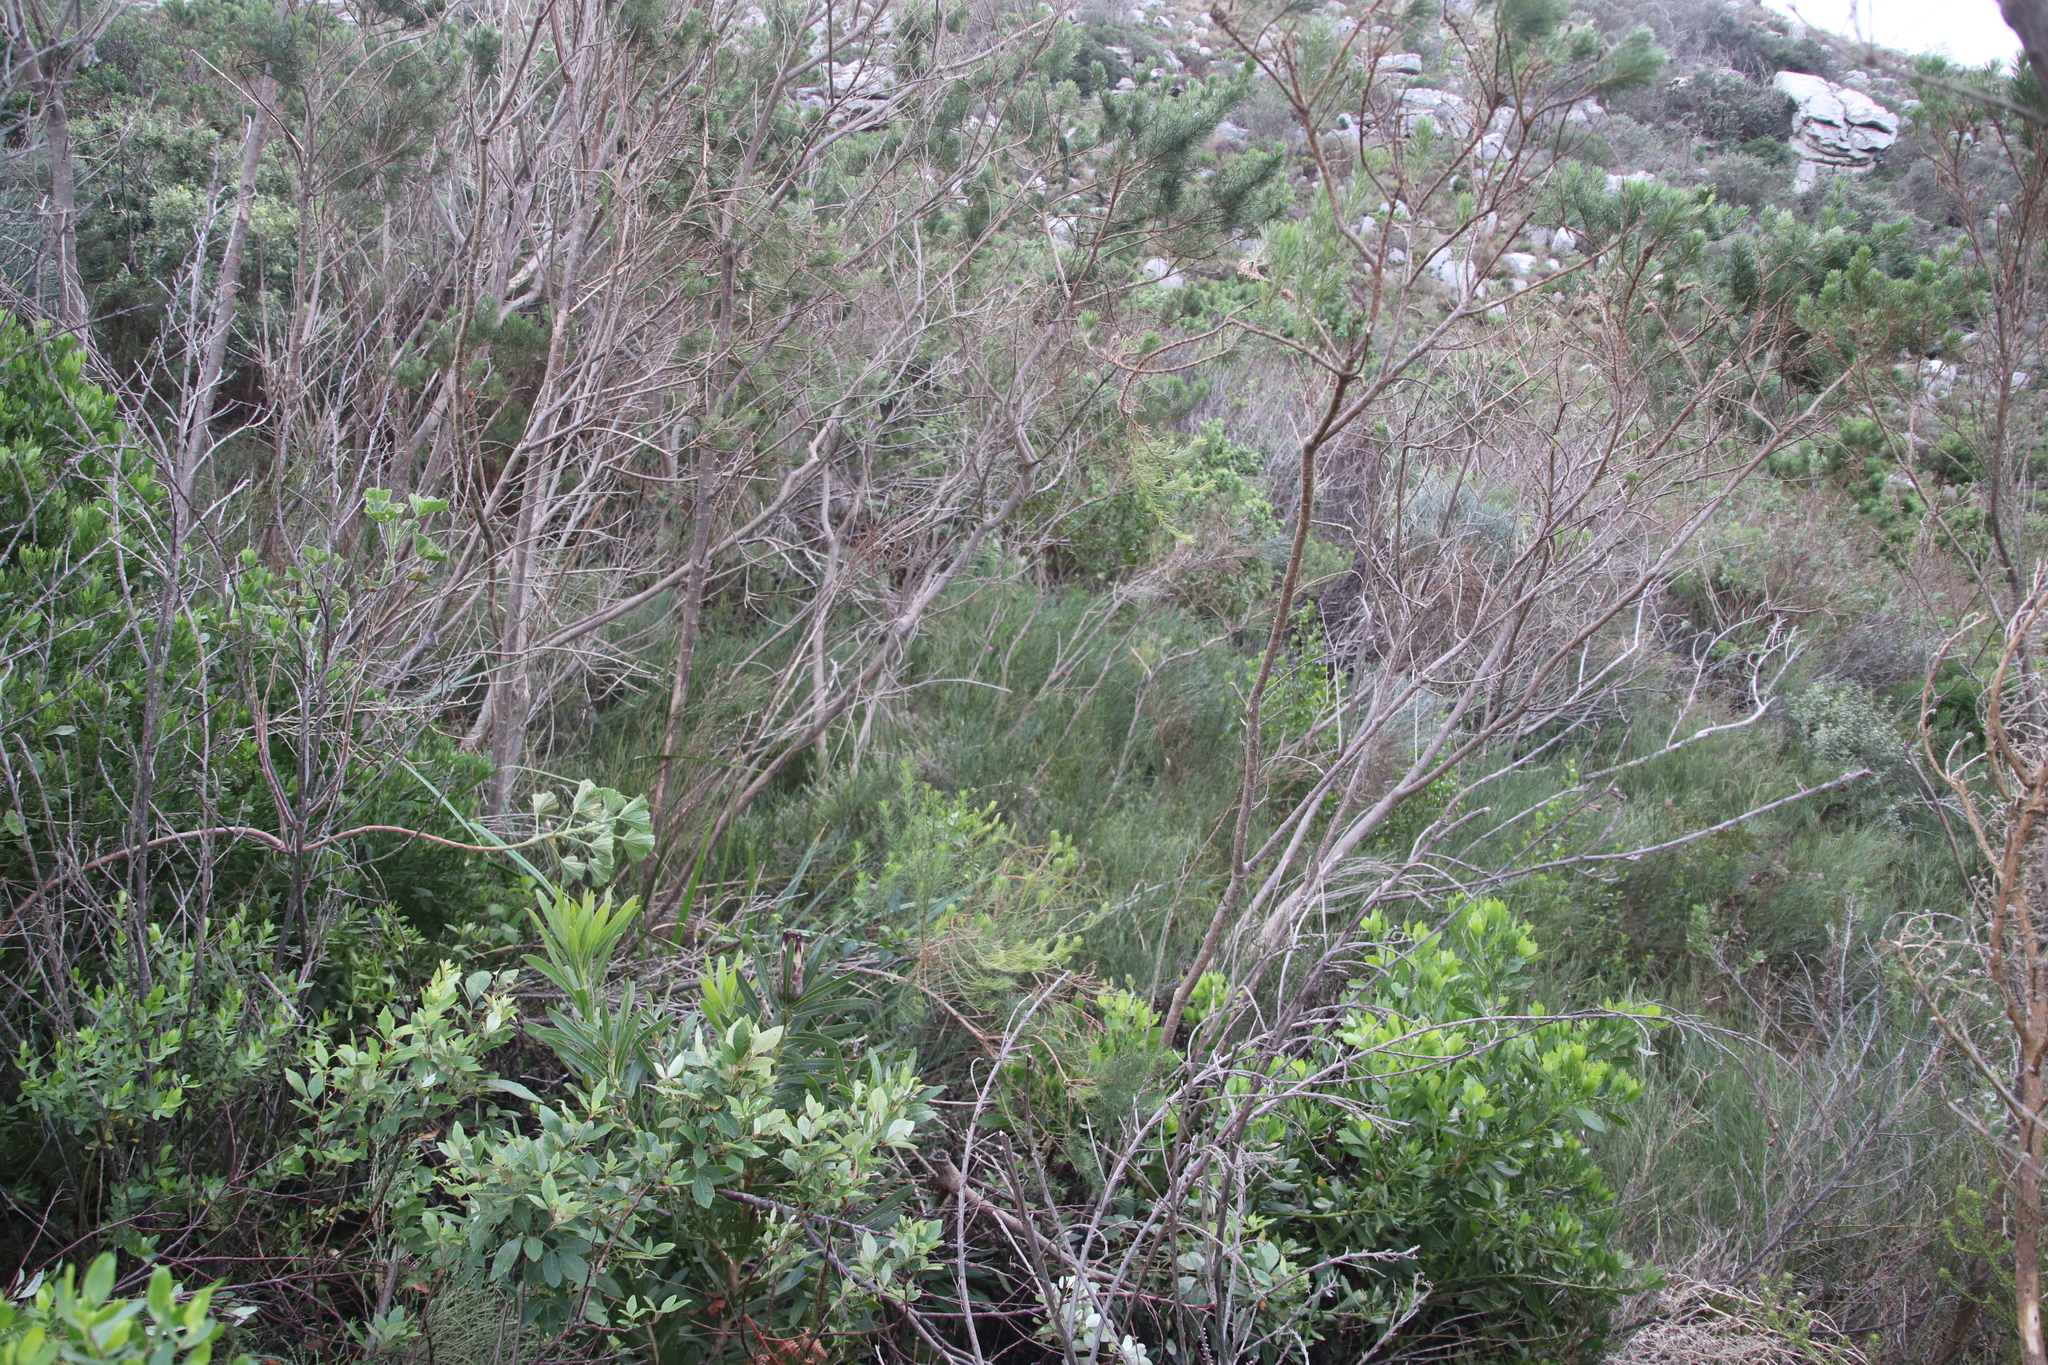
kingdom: Plantae
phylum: Tracheophyta
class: Magnoliopsida
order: Fabales
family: Fabaceae
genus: Indigofera
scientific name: Indigofera filifolia
